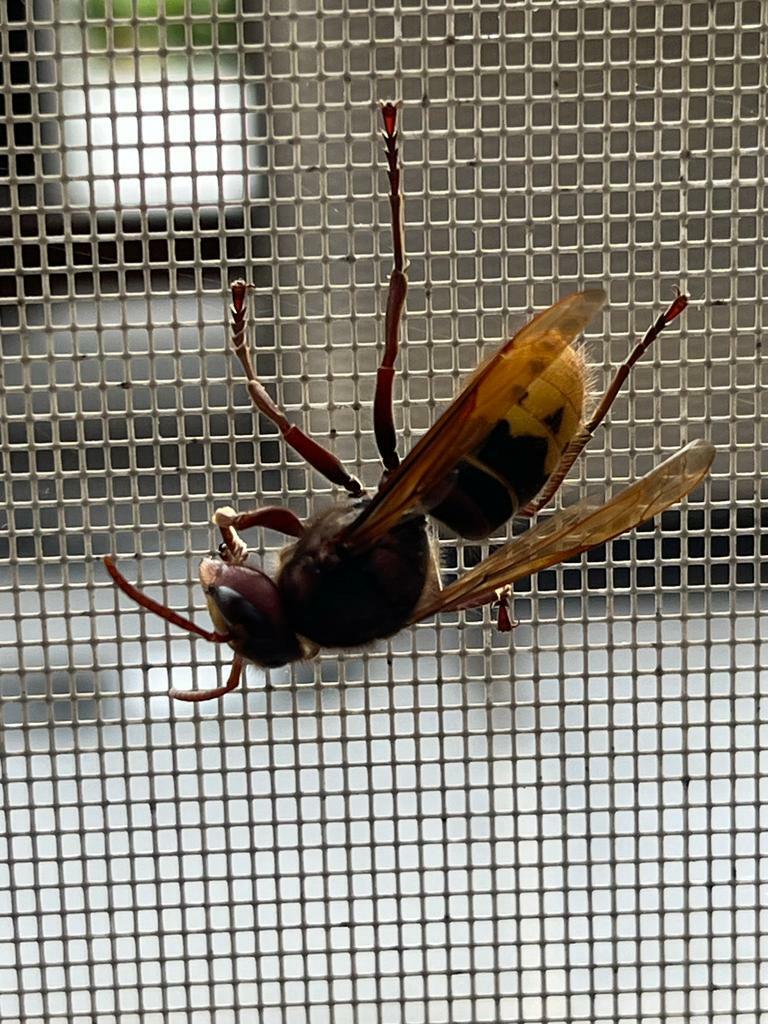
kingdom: Animalia
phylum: Arthropoda
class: Insecta
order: Hymenoptera
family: Vespidae
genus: Vespa
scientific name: Vespa crabro
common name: Hornet
